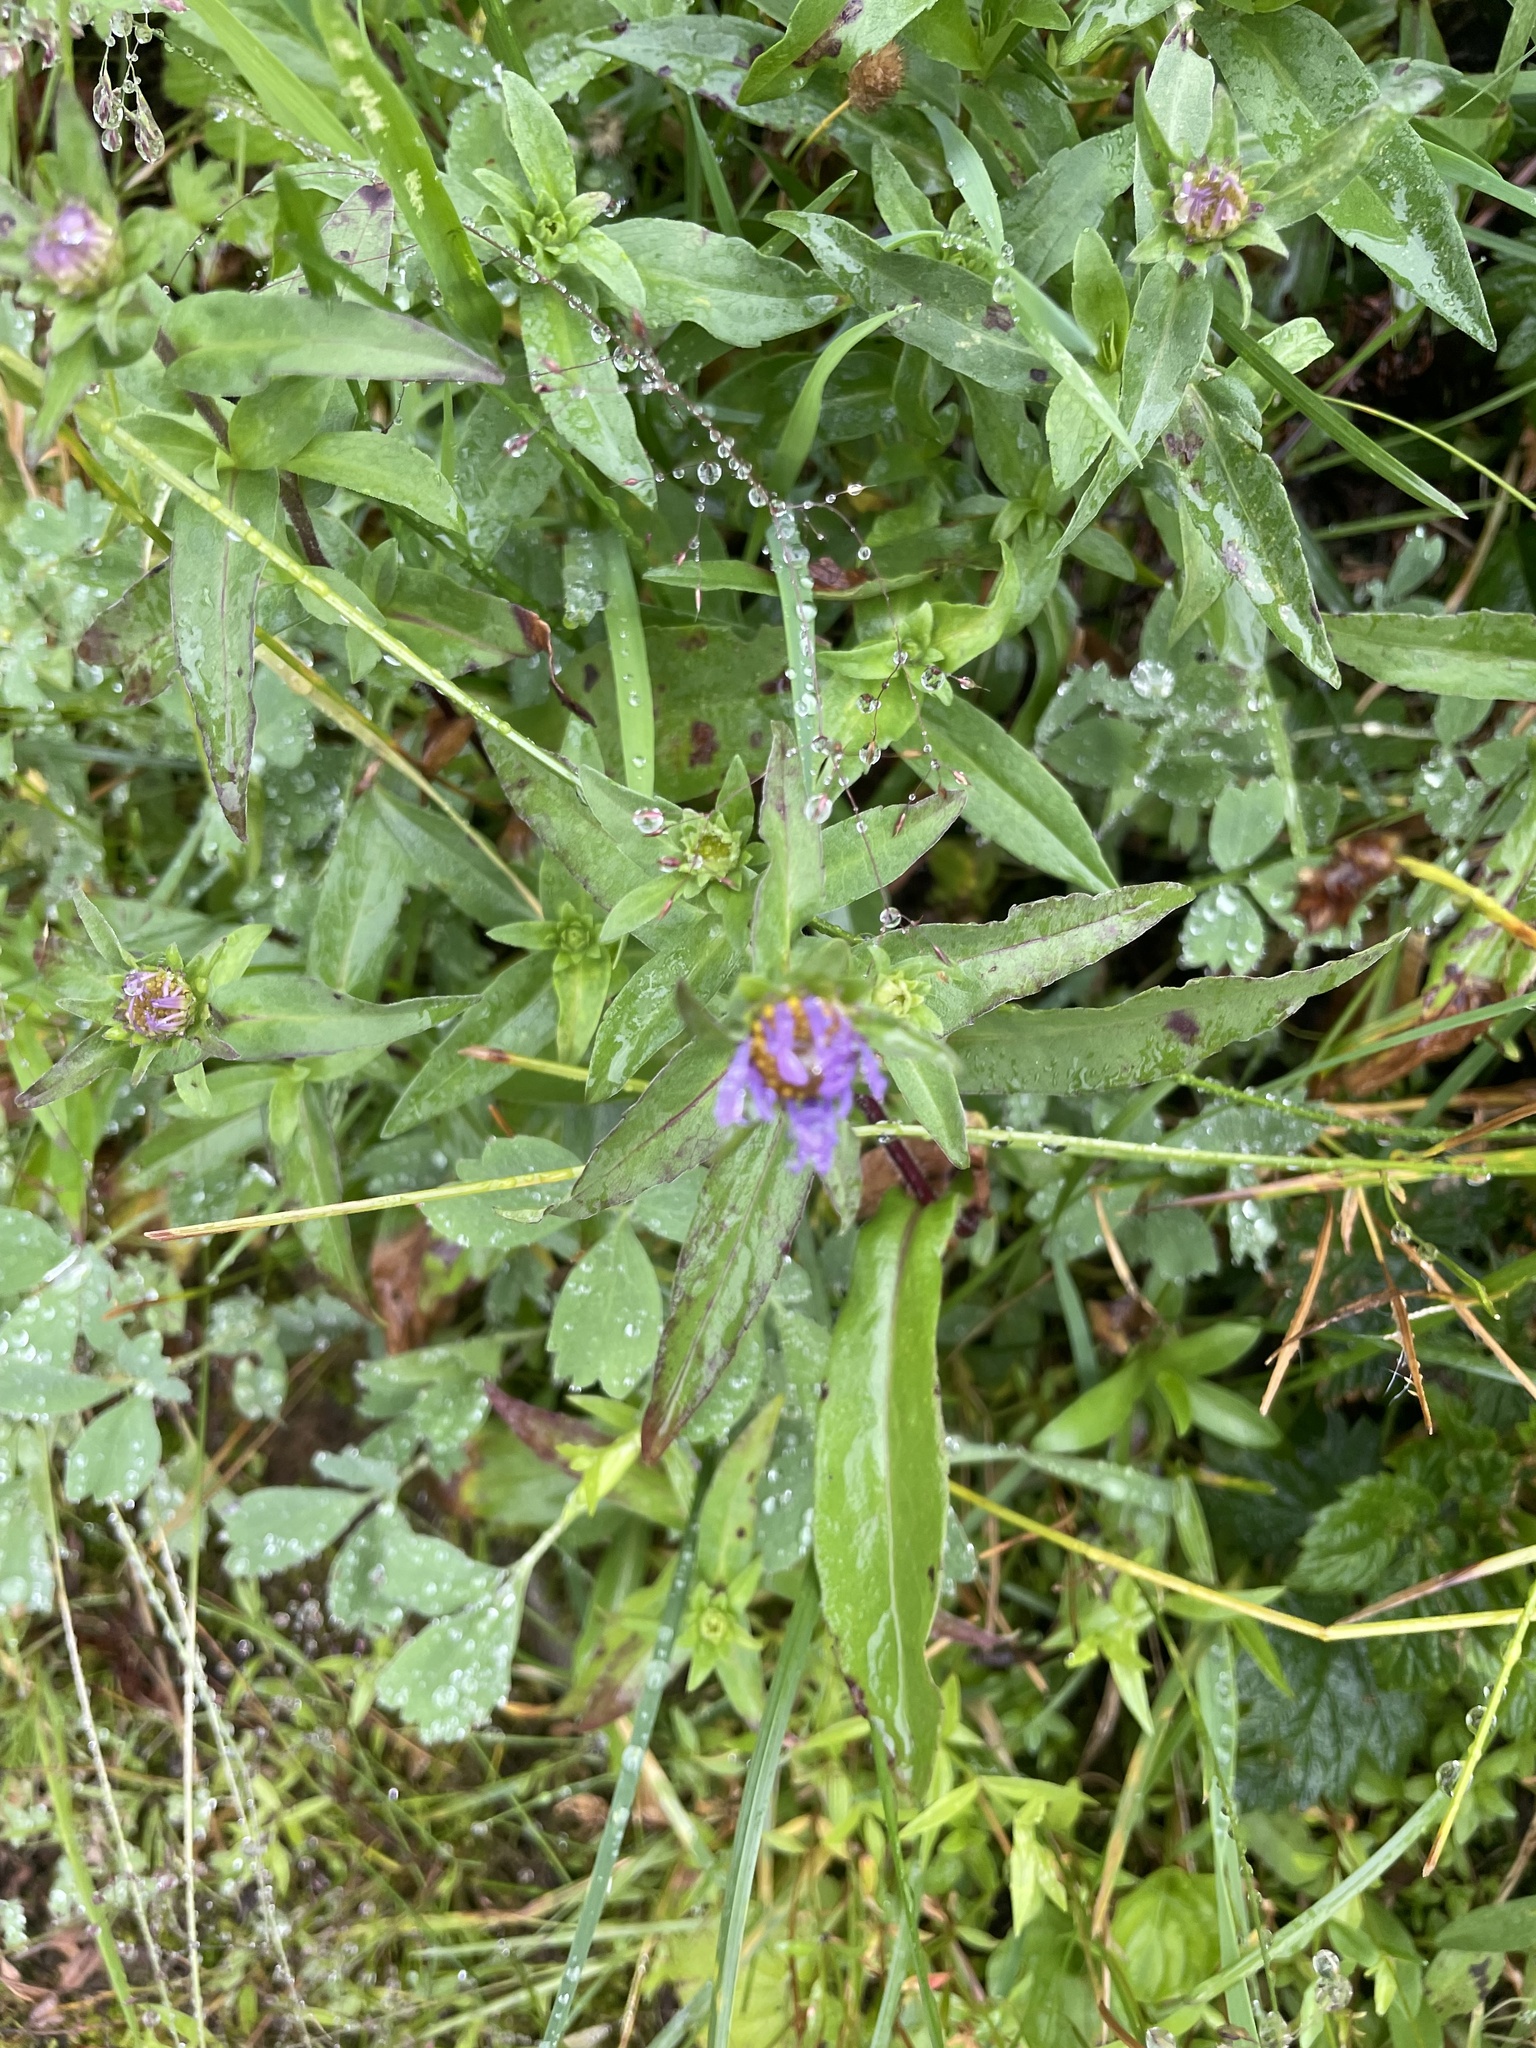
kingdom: Plantae
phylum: Tracheophyta
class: Magnoliopsida
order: Asterales
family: Asteraceae
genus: Symphyotrichum
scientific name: Symphyotrichum subspicatum
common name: Douglas' aster
